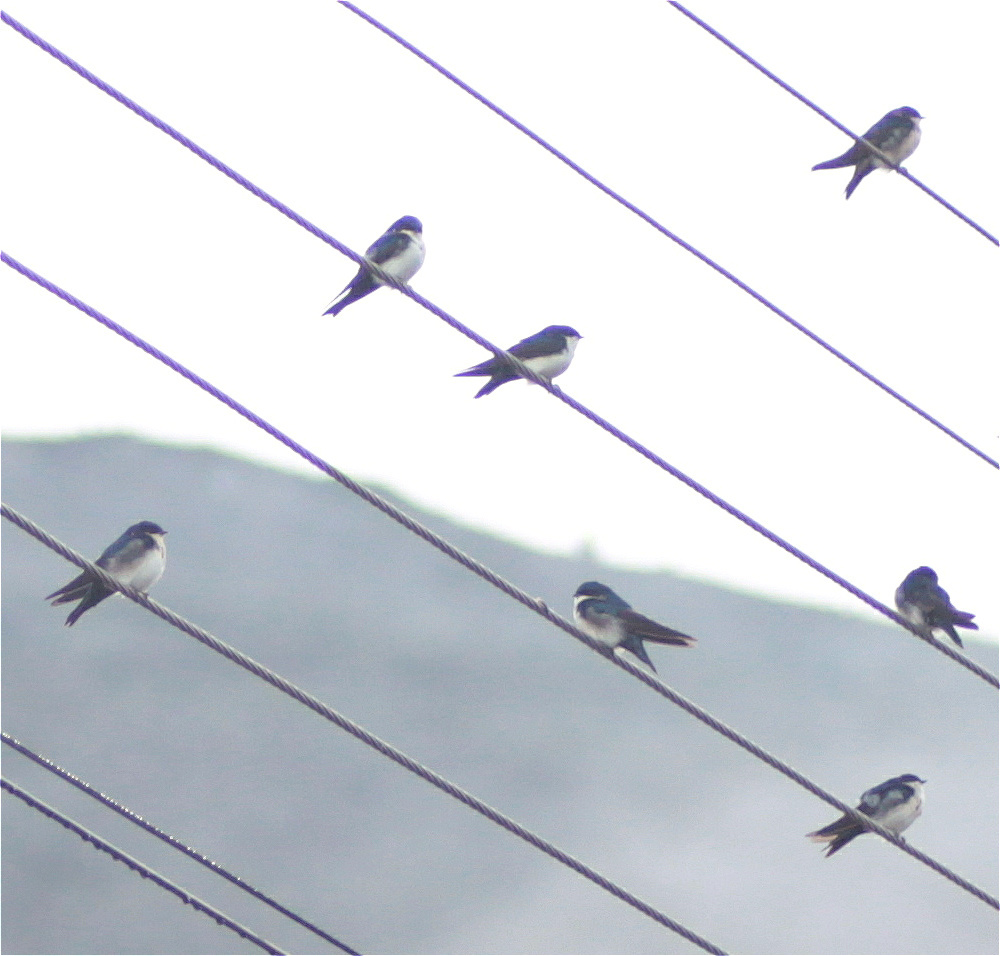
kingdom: Animalia
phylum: Chordata
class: Aves
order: Passeriformes
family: Hirundinidae
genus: Notiochelidon
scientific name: Notiochelidon cyanoleuca
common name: Blue-and-white swallow
